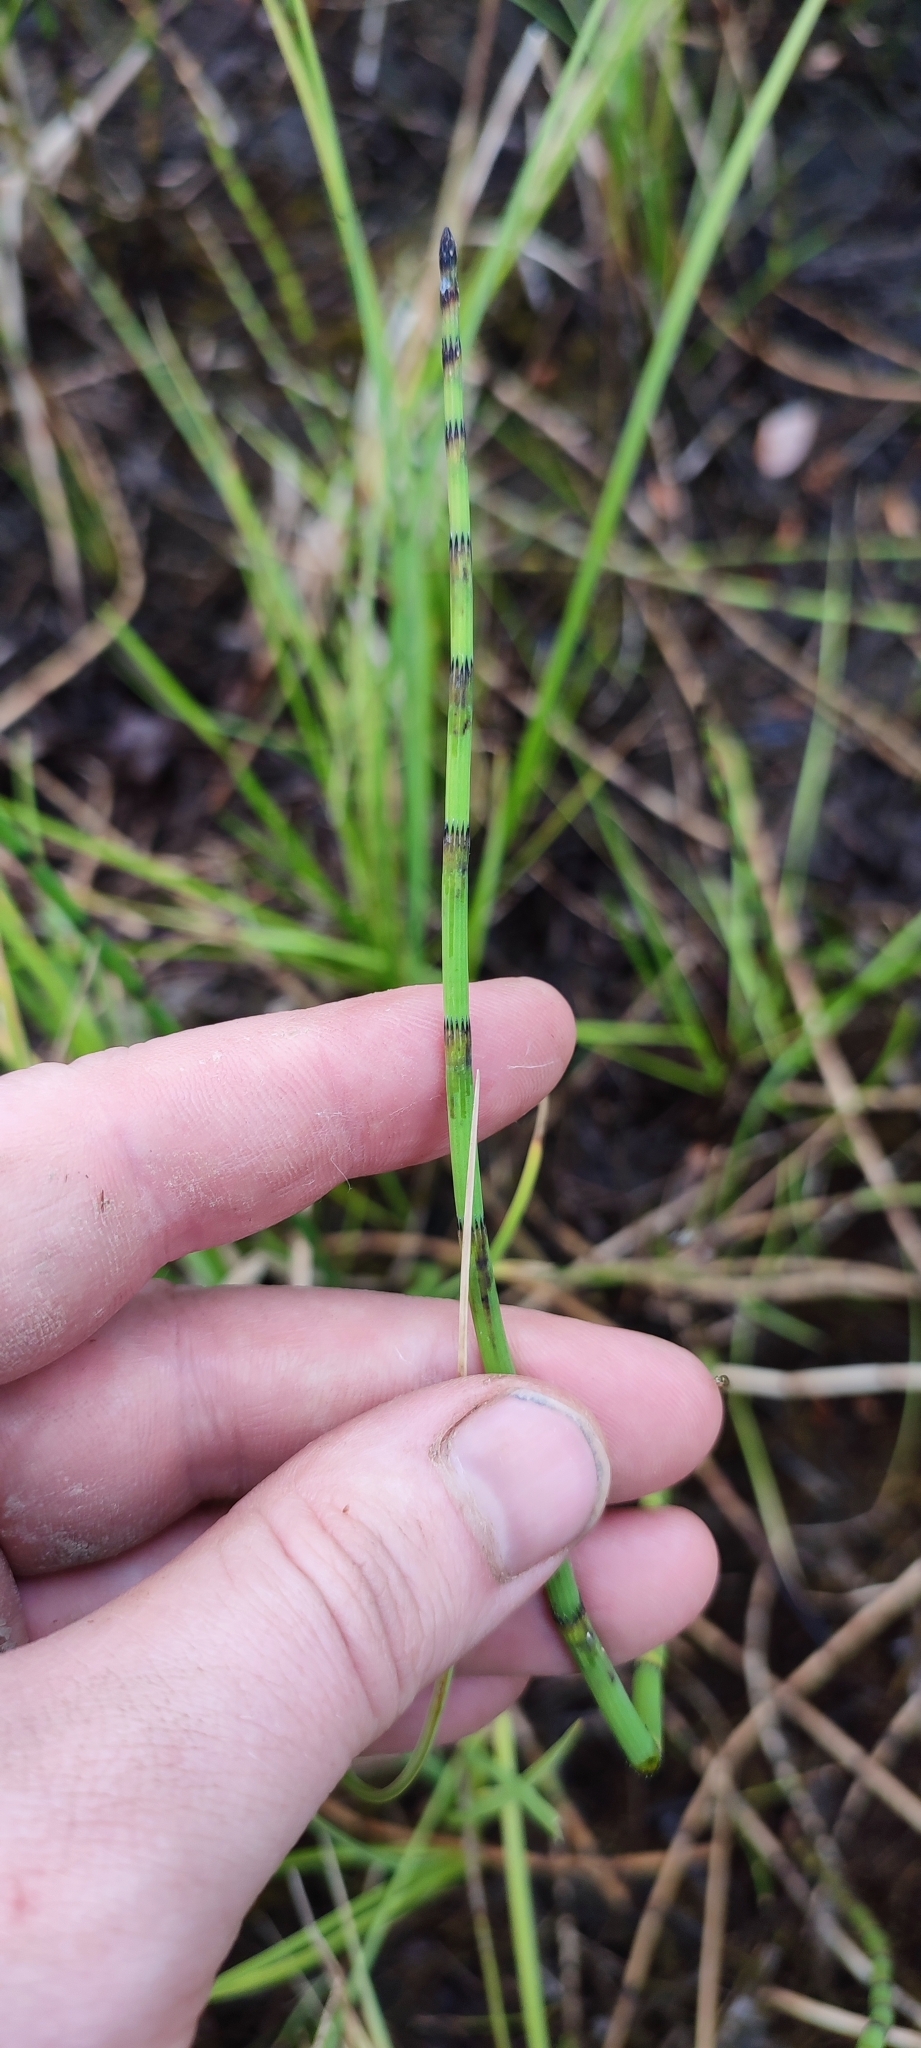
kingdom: Plantae
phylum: Tracheophyta
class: Polypodiopsida
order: Equisetales
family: Equisetaceae
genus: Equisetum
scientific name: Equisetum fluviatile
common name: Water horsetail
